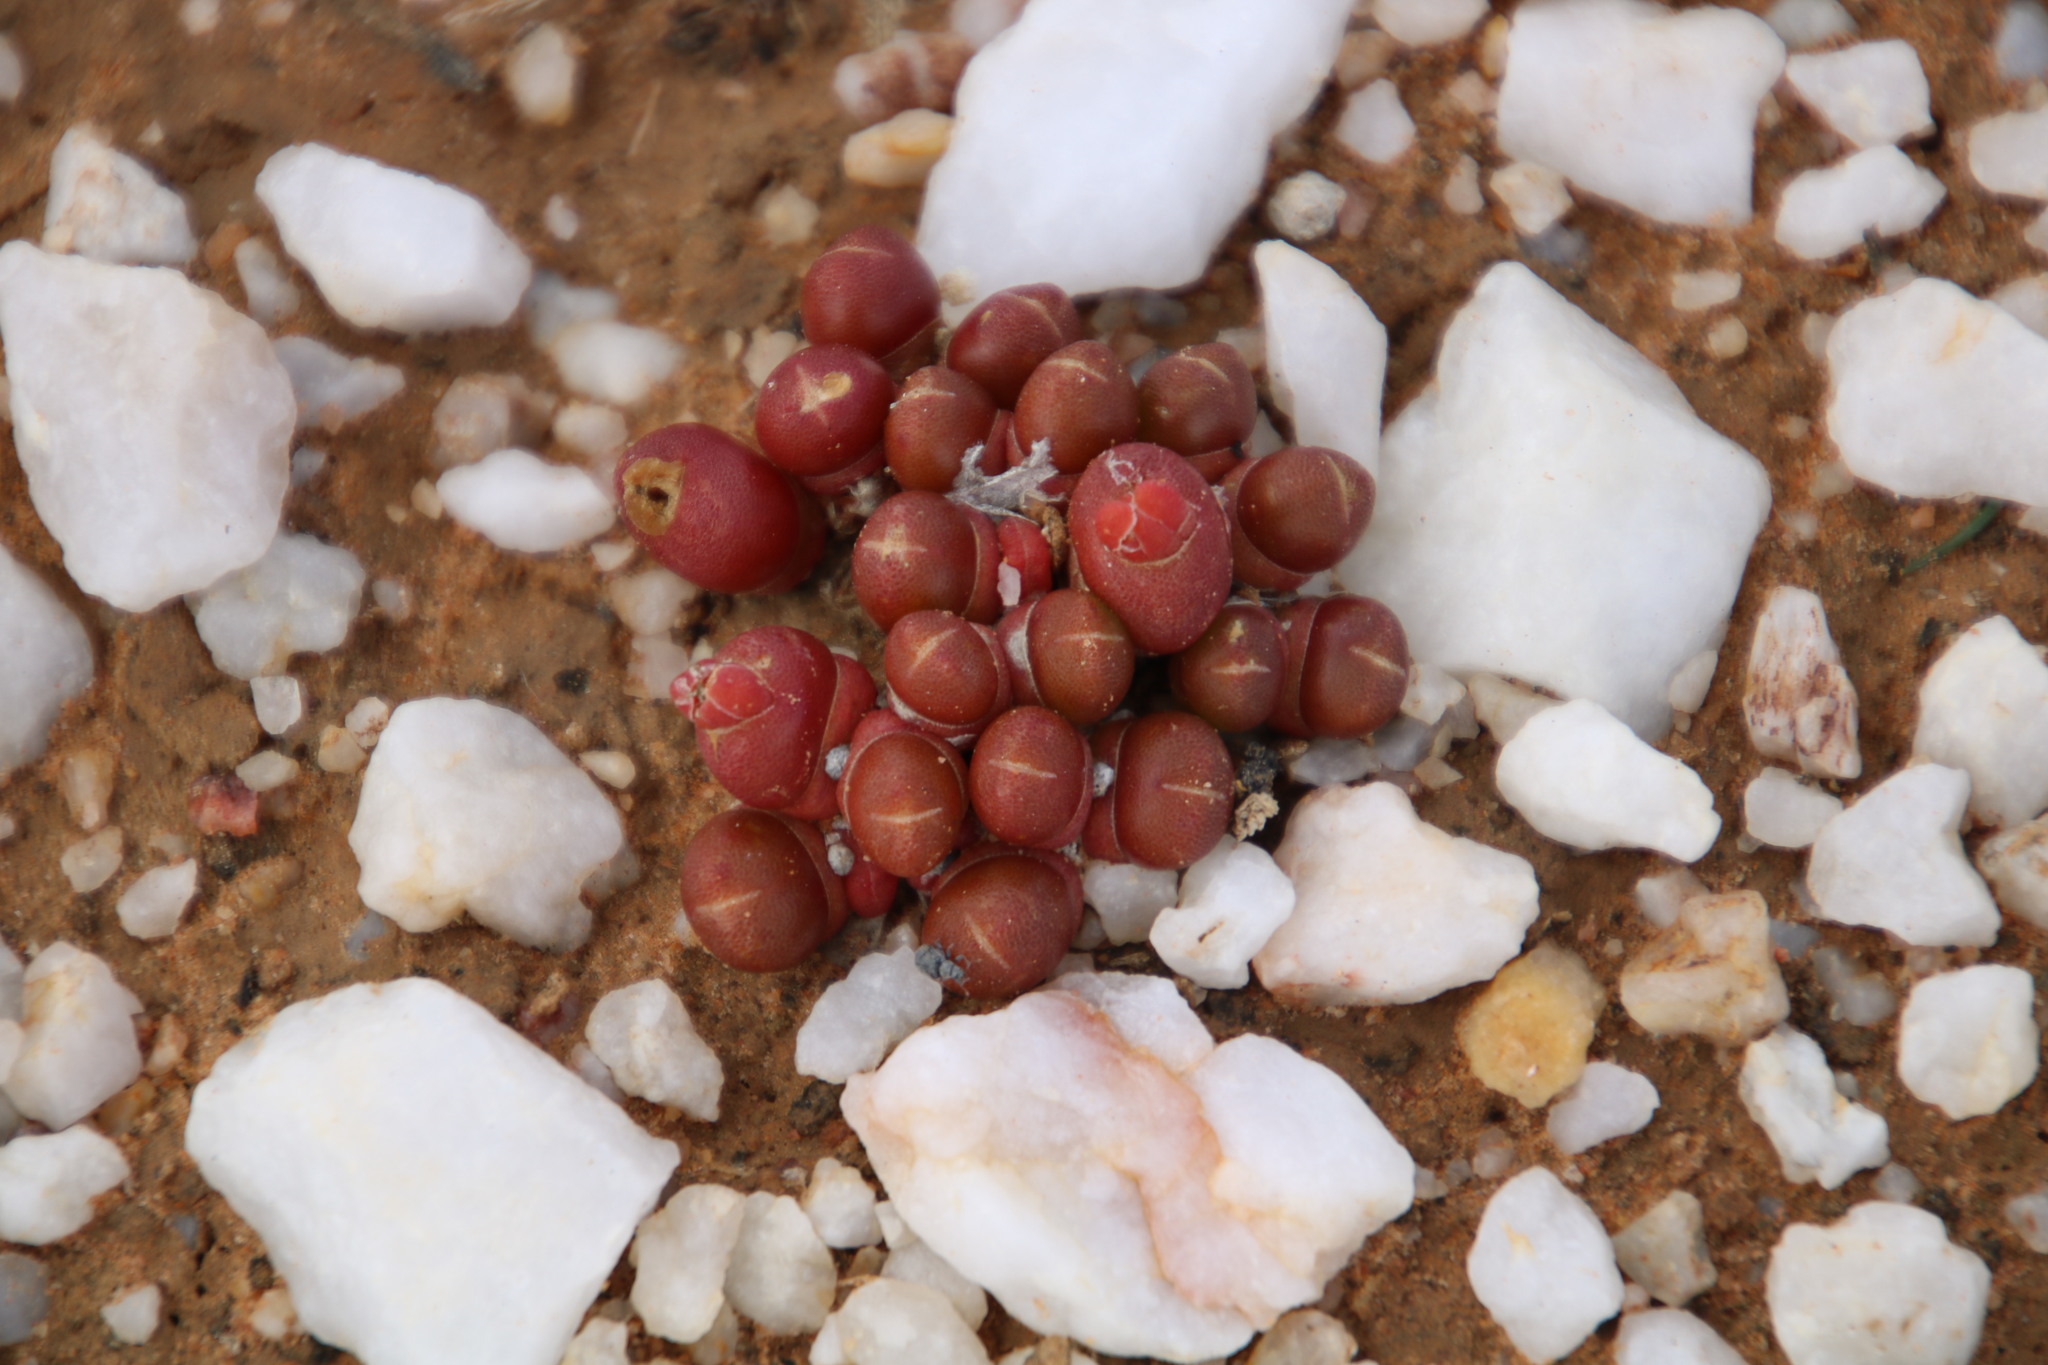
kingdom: Plantae
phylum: Tracheophyta
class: Magnoliopsida
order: Caryophyllales
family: Aizoaceae
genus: Oophytum
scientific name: Oophytum nanum
